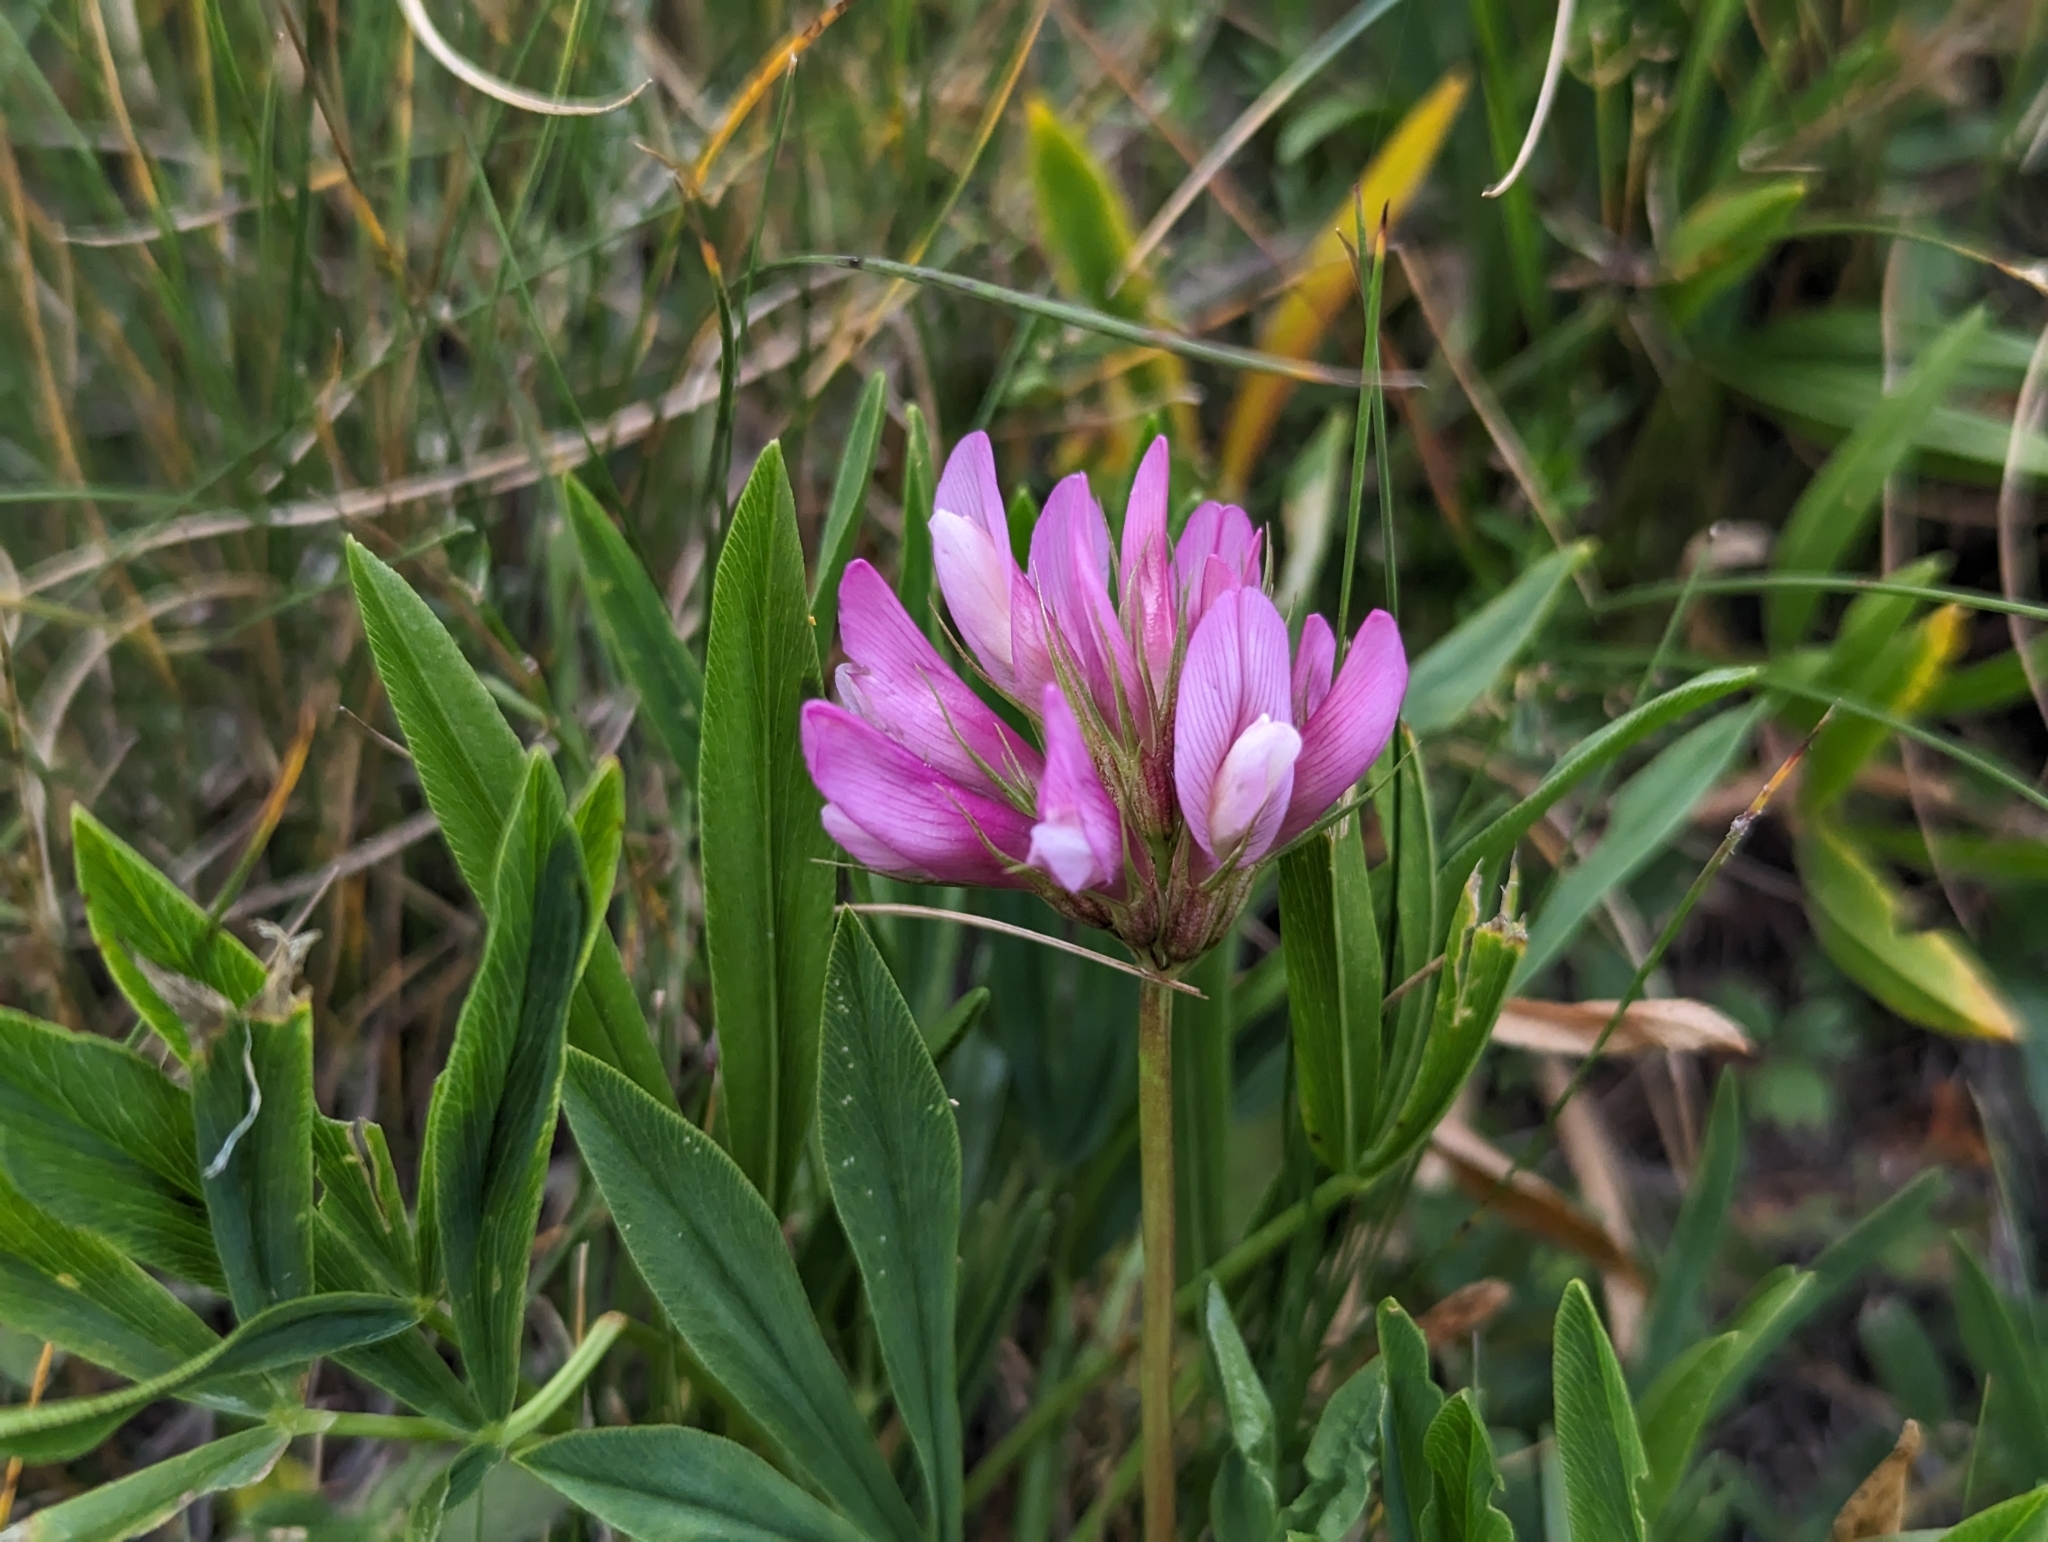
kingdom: Plantae
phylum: Tracheophyta
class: Magnoliopsida
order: Fabales
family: Fabaceae
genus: Trifolium
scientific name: Trifolium alpinum
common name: Alpine clover
